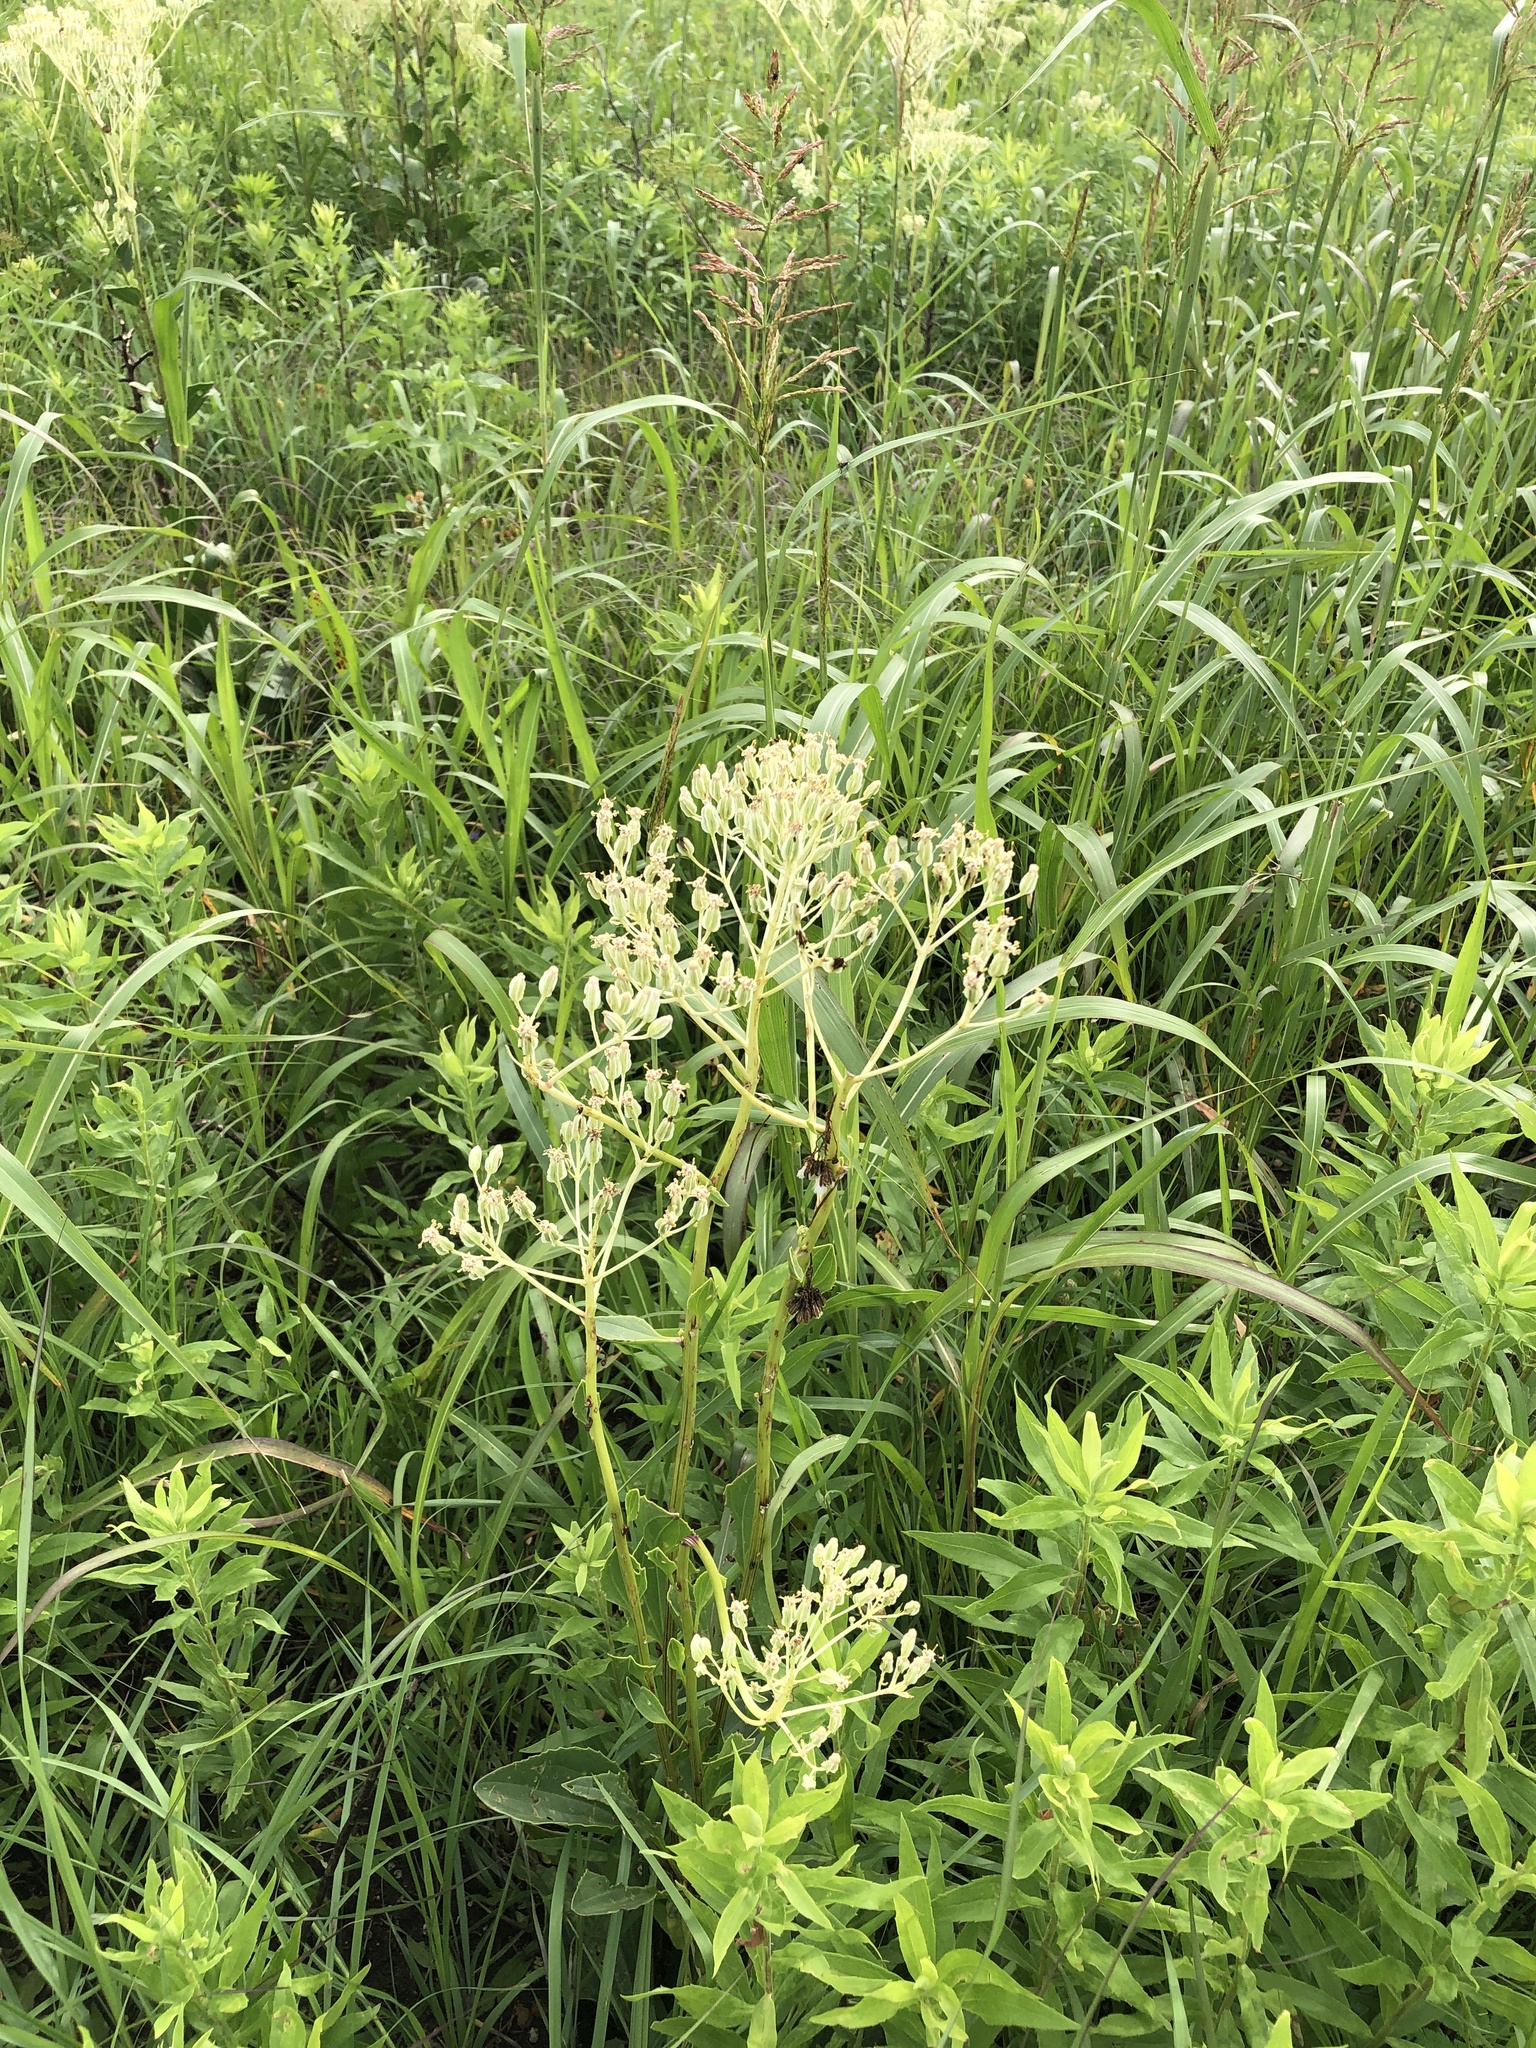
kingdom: Plantae
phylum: Tracheophyta
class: Magnoliopsida
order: Asterales
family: Asteraceae
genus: Arnoglossum
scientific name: Arnoglossum plantagineum
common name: Groove-stemmed indian-plantain
